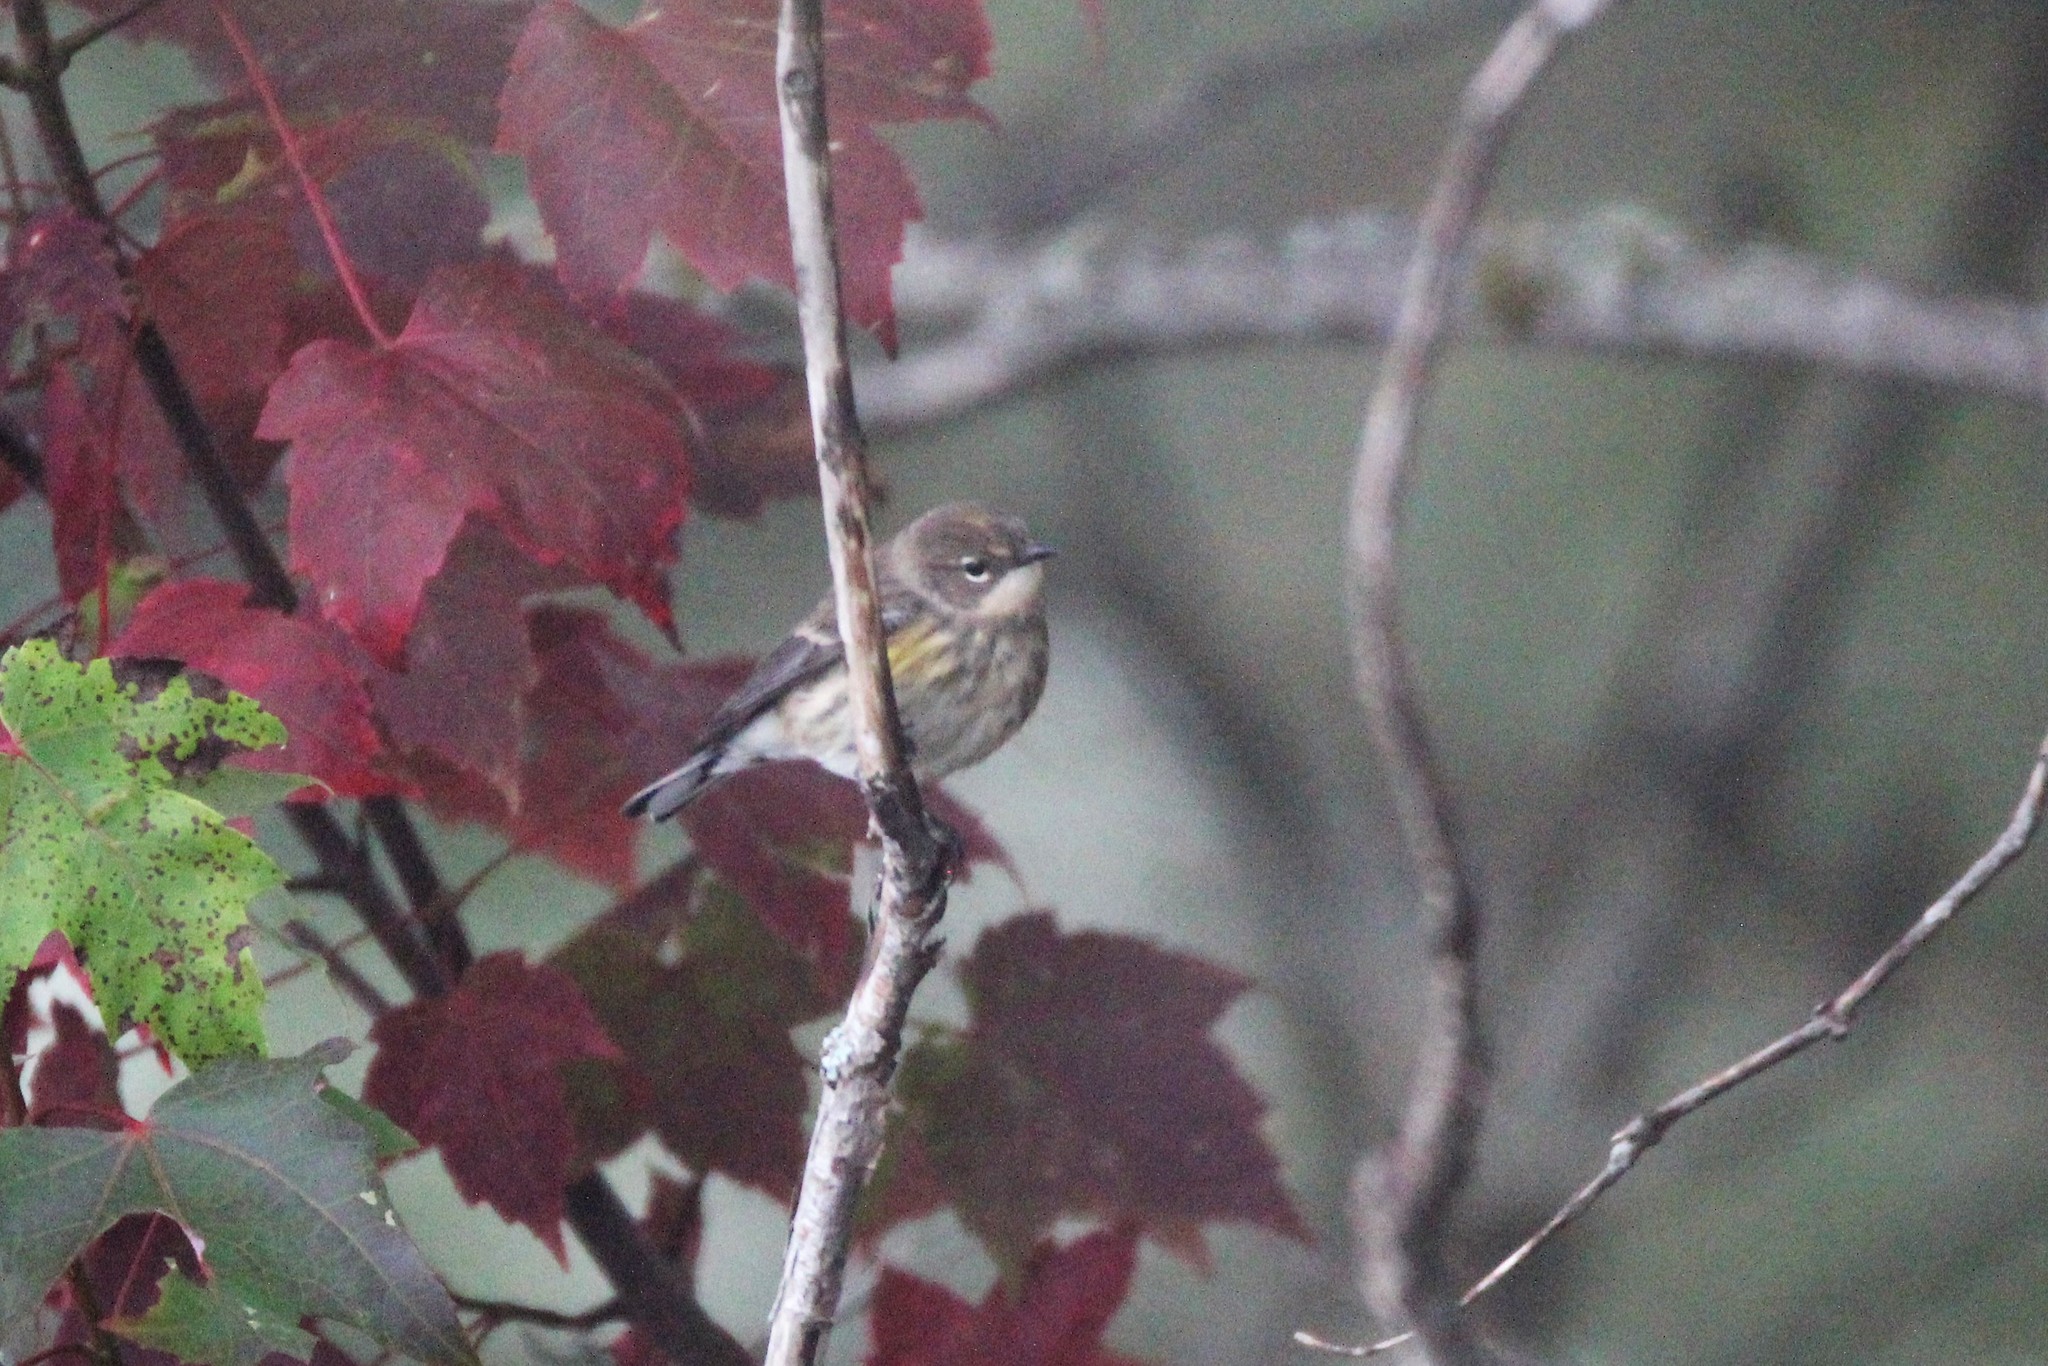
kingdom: Animalia
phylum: Chordata
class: Aves
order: Passeriformes
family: Parulidae
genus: Setophaga
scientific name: Setophaga coronata
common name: Myrtle warbler
